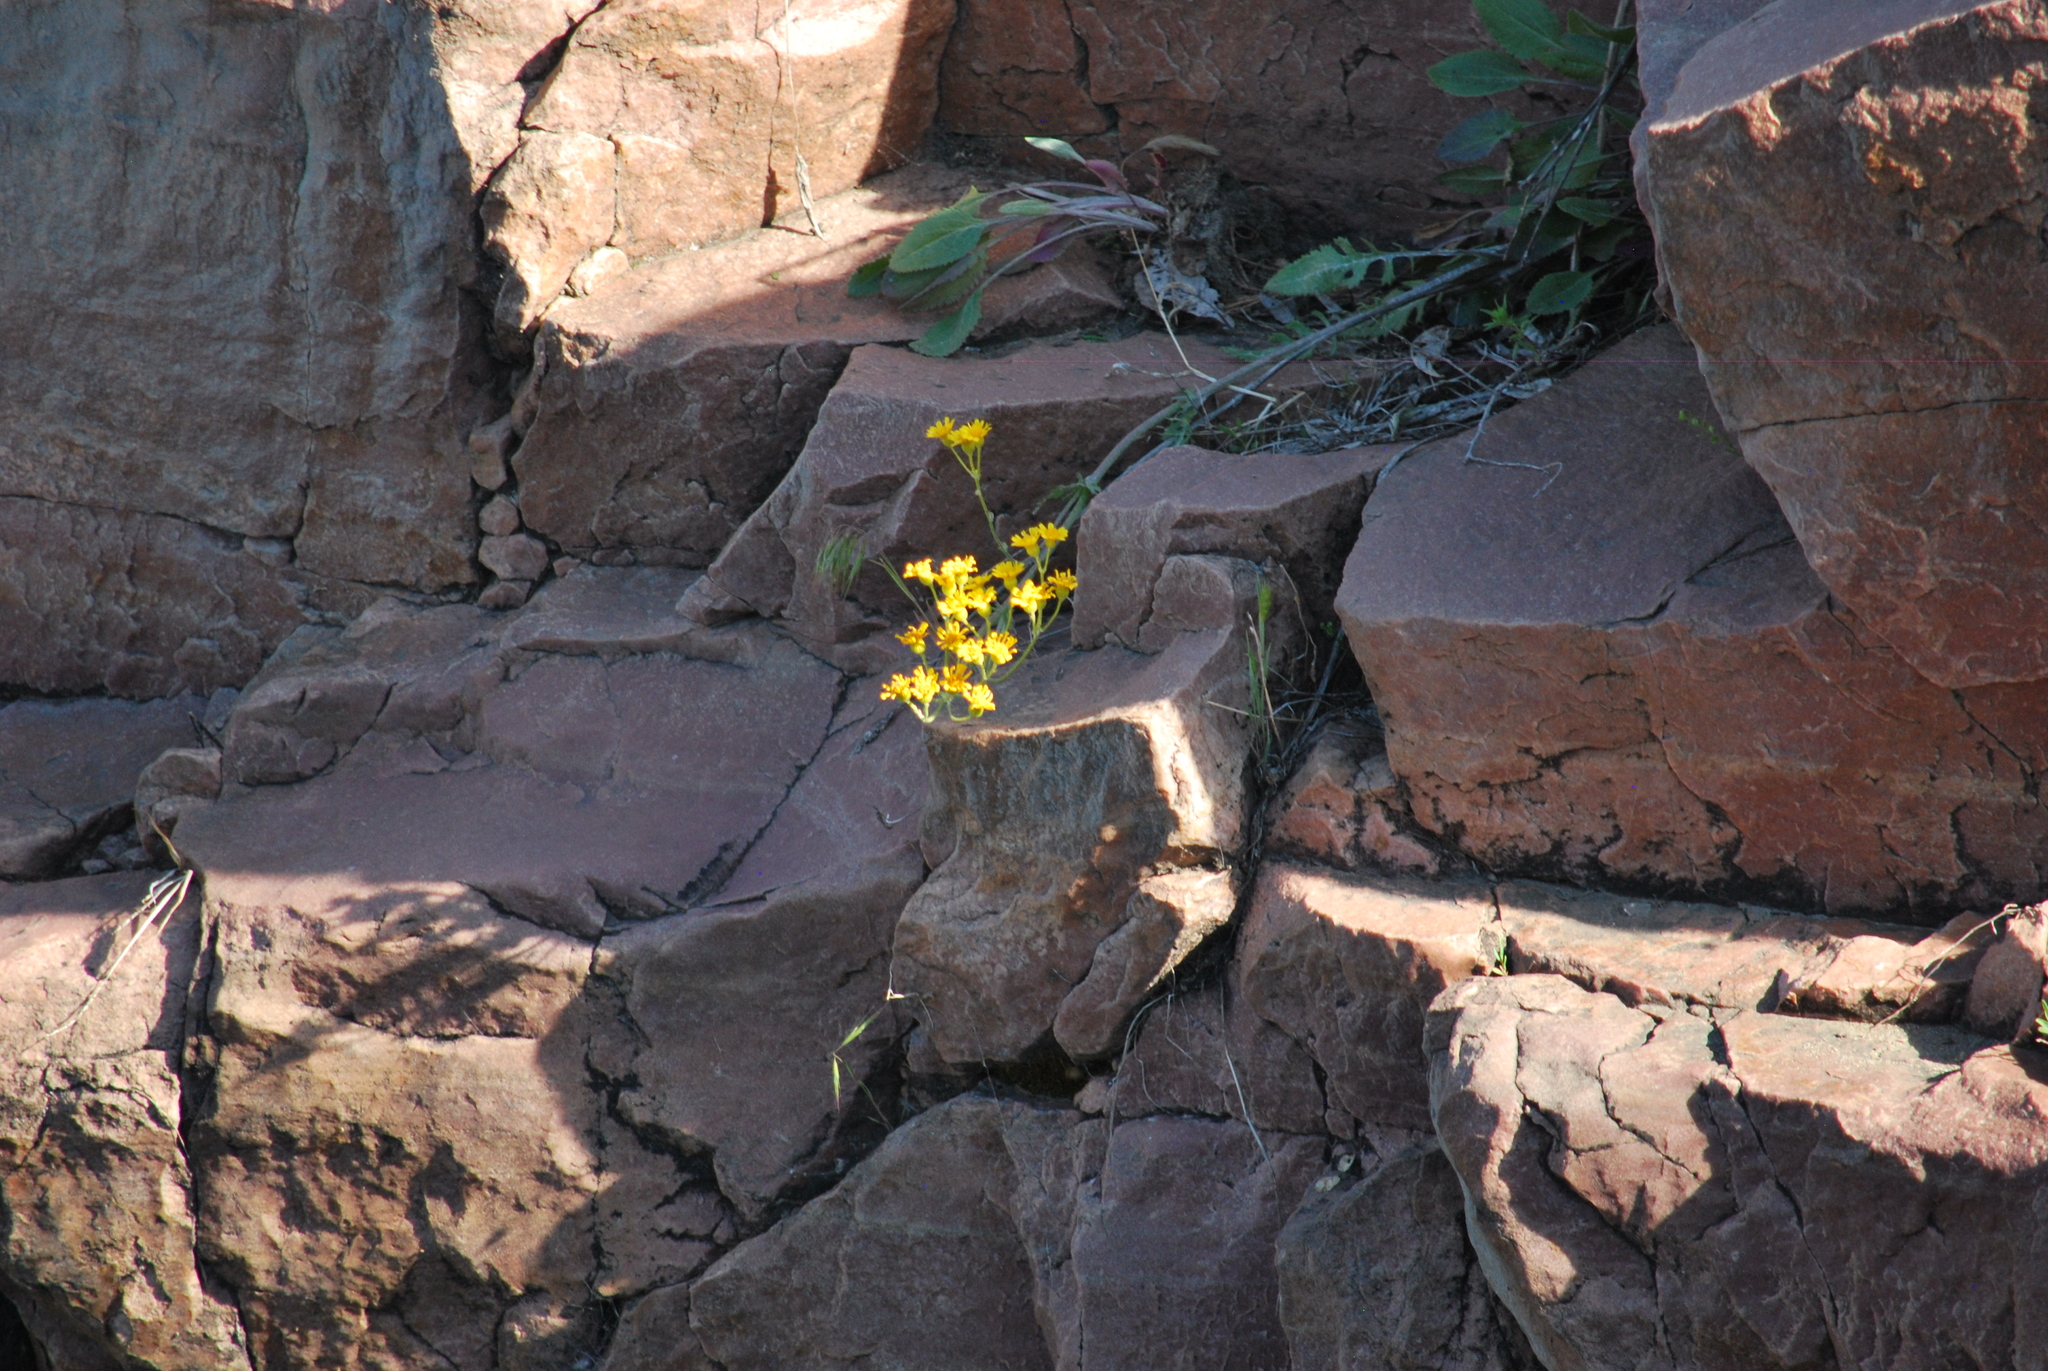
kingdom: Plantae
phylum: Tracheophyta
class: Magnoliopsida
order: Asterales
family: Asteraceae
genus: Packera
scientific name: Packera plattensis
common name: Prairie groundsel
